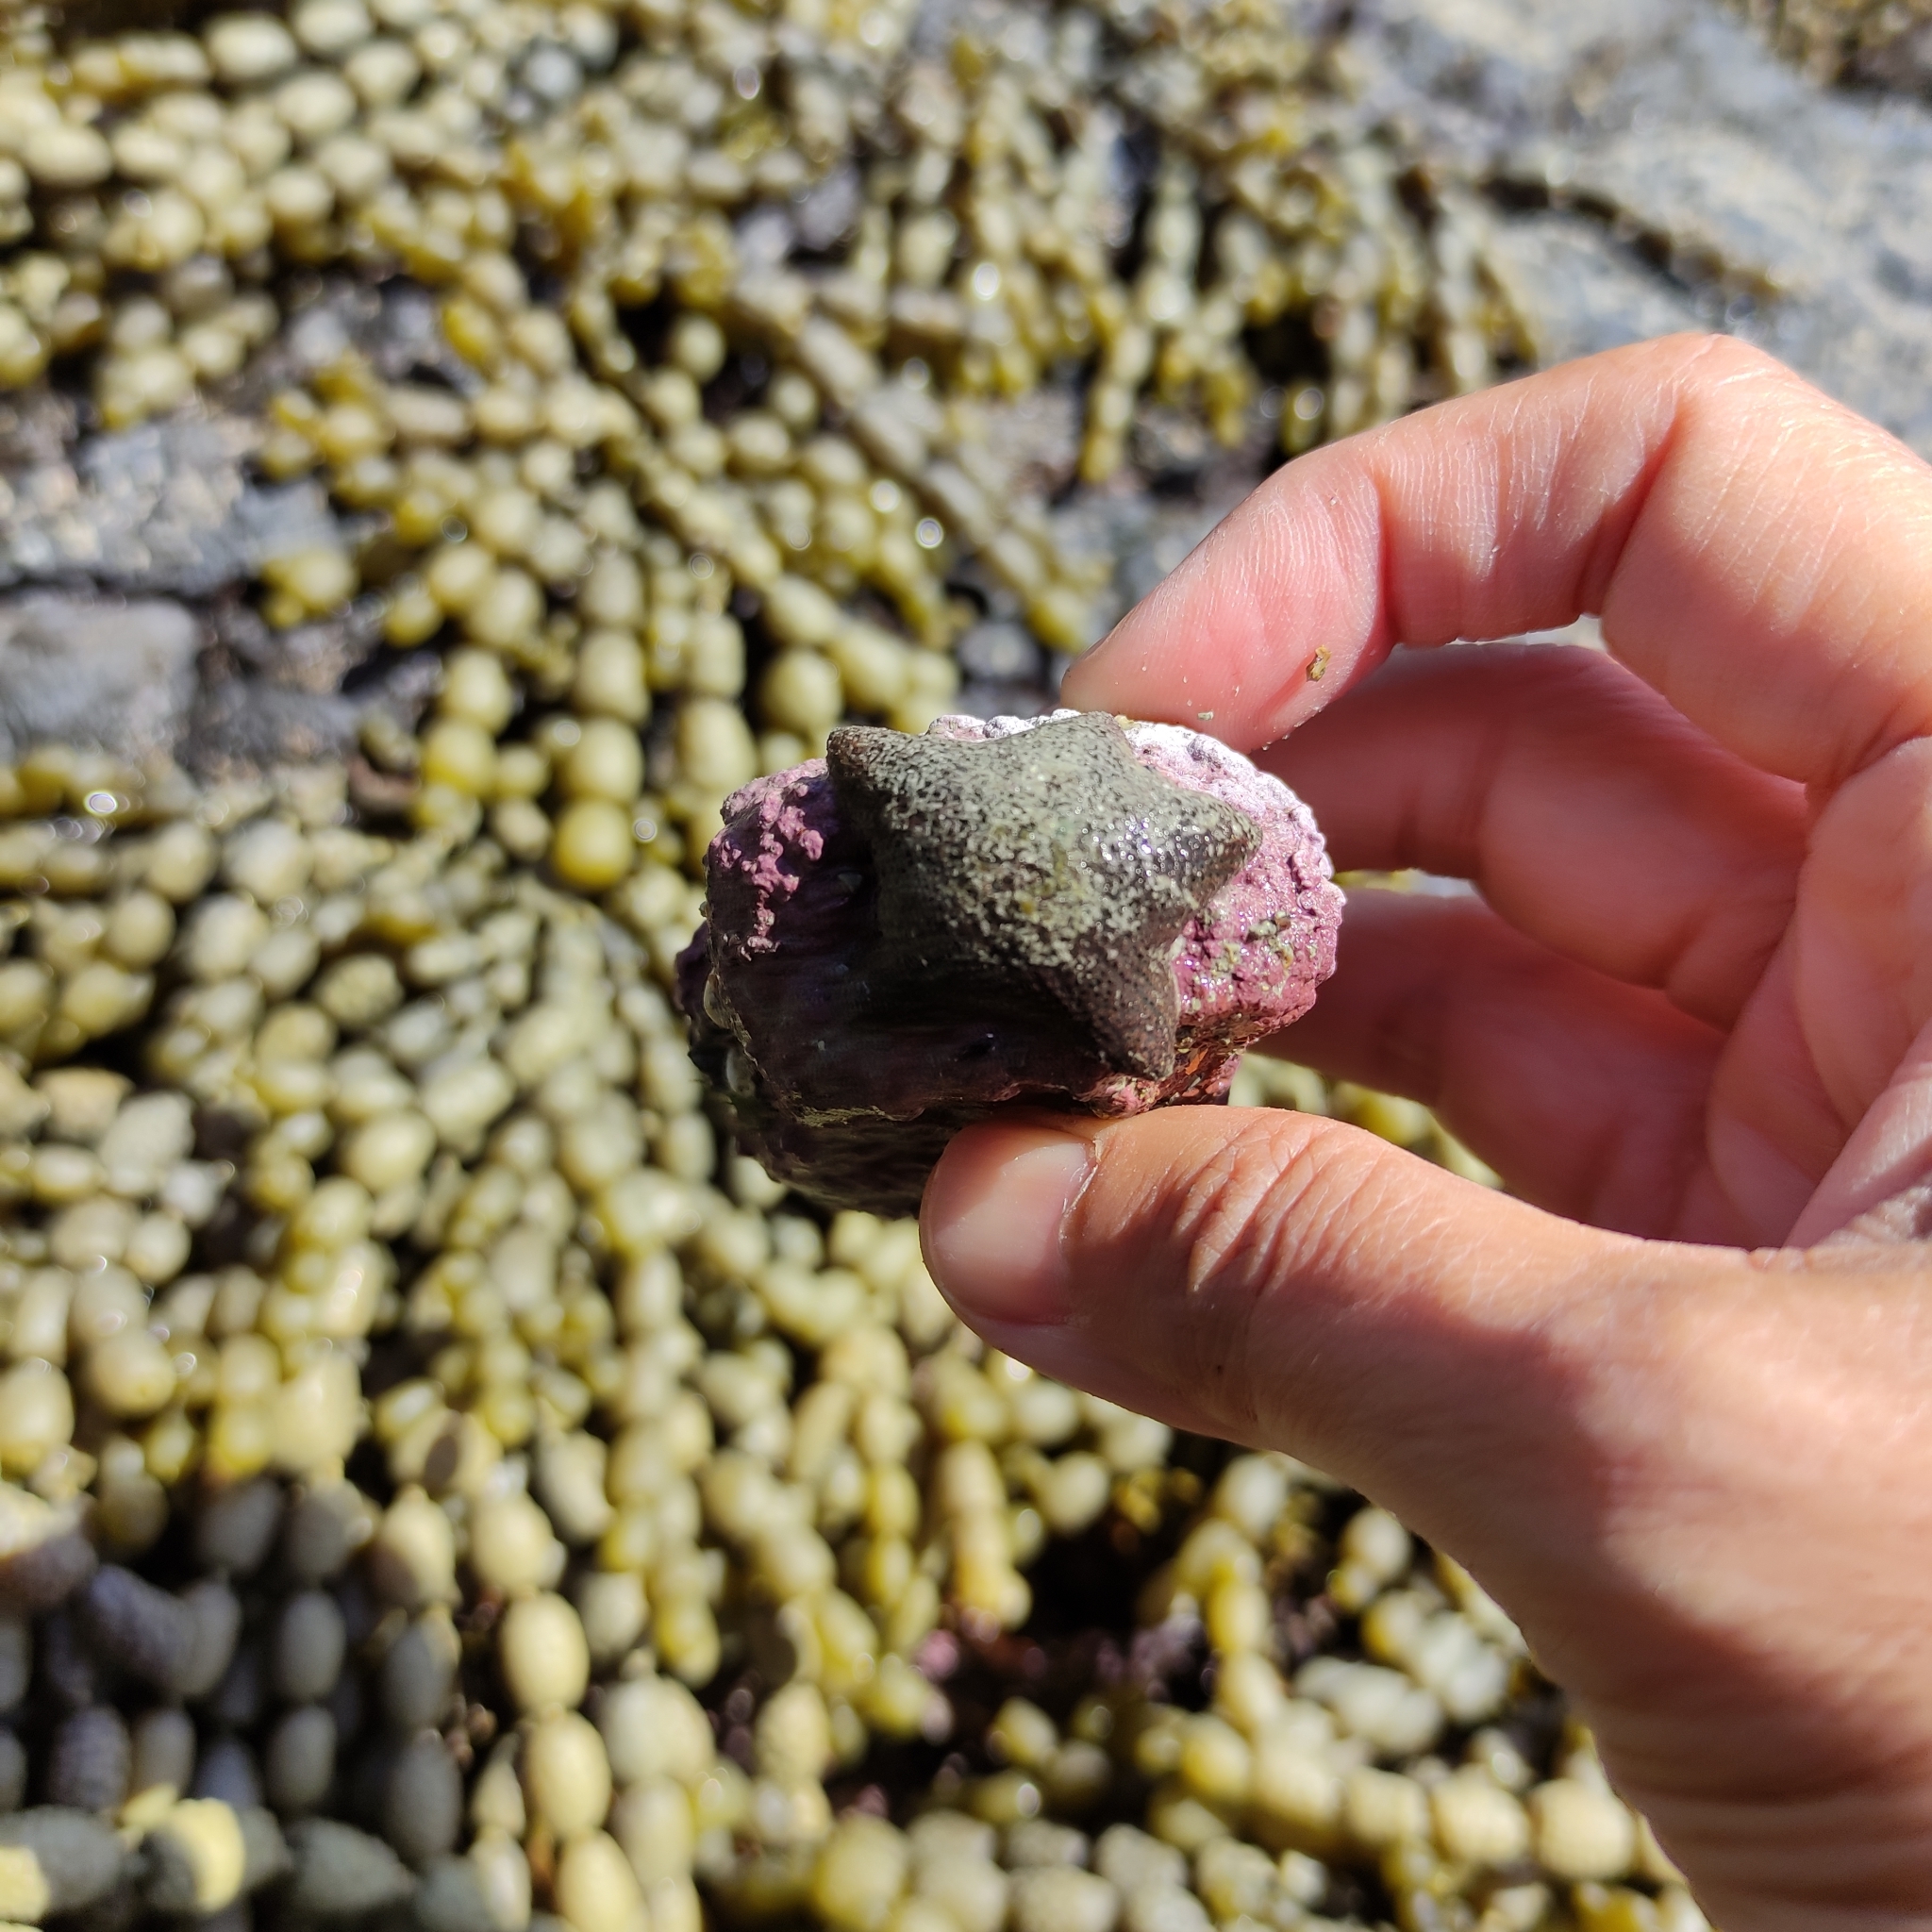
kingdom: Animalia
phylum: Echinodermata
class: Asteroidea
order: Valvatida
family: Asterinidae
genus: Patiriella
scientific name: Patiriella regularis
